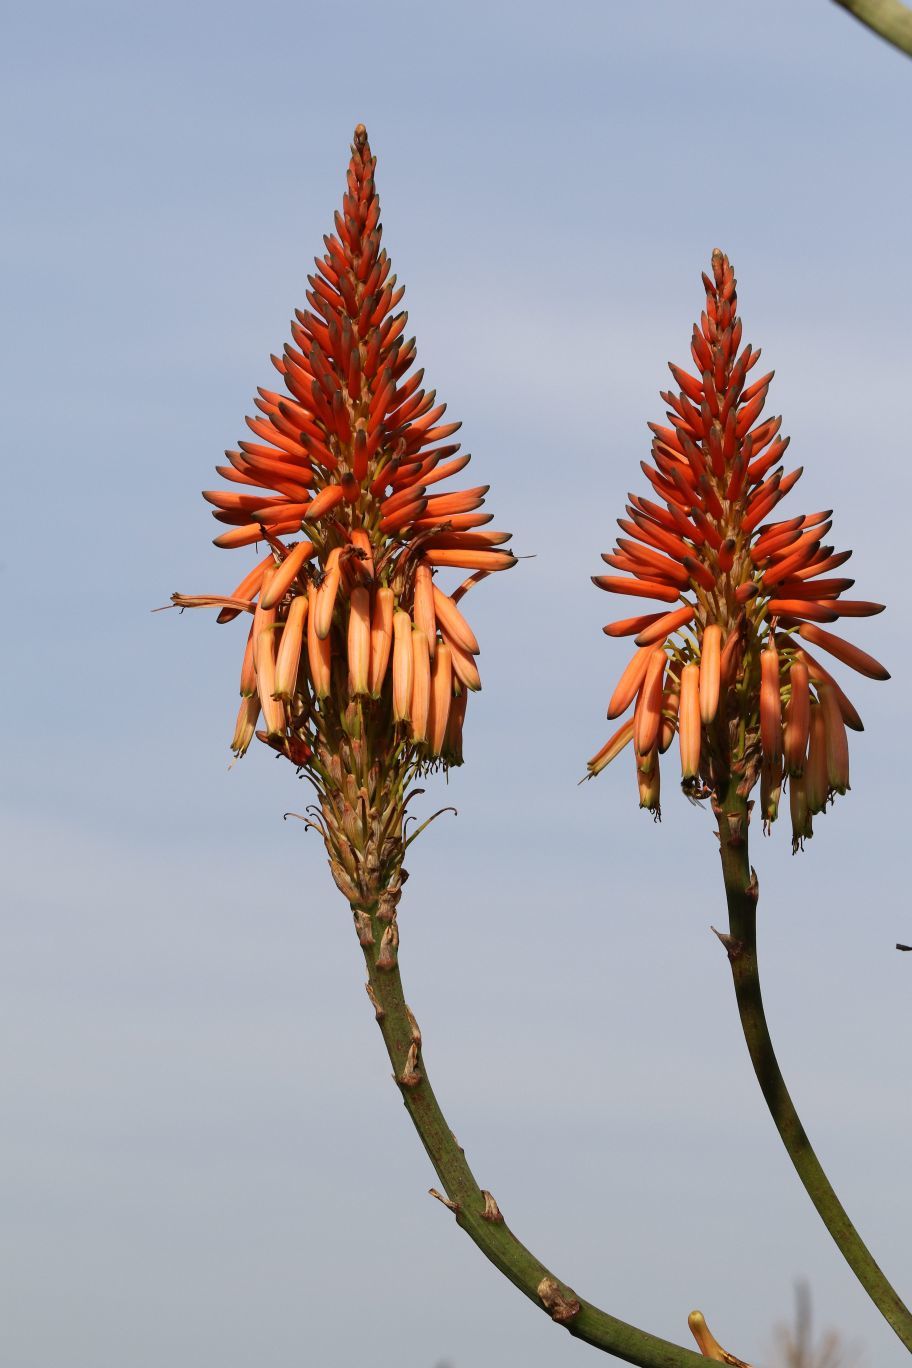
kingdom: Plantae
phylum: Tracheophyta
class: Liliopsida
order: Asparagales
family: Asphodelaceae
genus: Aloe
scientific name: Aloe arborescens
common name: Candelabra aloe
